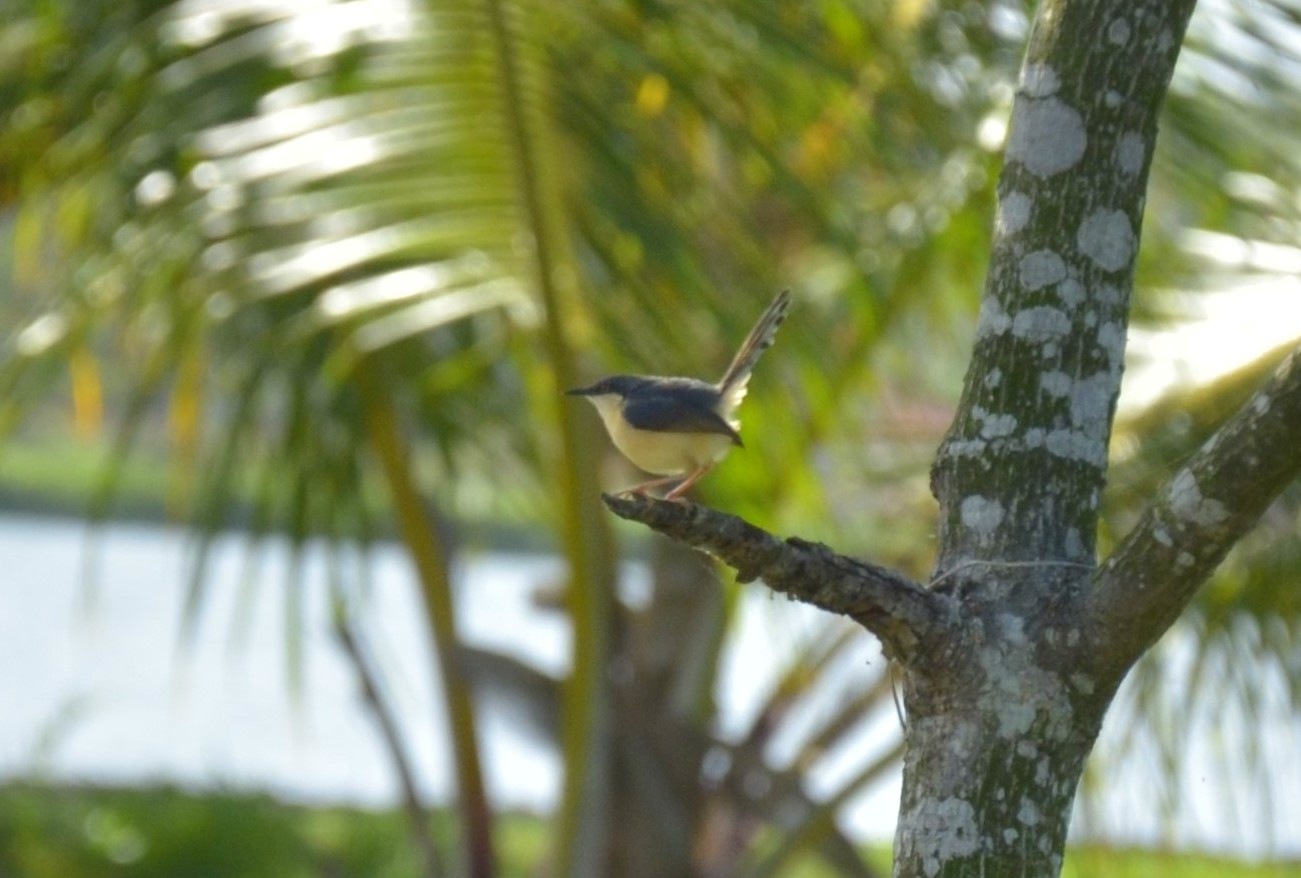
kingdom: Animalia
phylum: Chordata
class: Aves
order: Passeriformes
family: Cisticolidae
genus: Prinia
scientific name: Prinia socialis
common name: Ashy prinia
